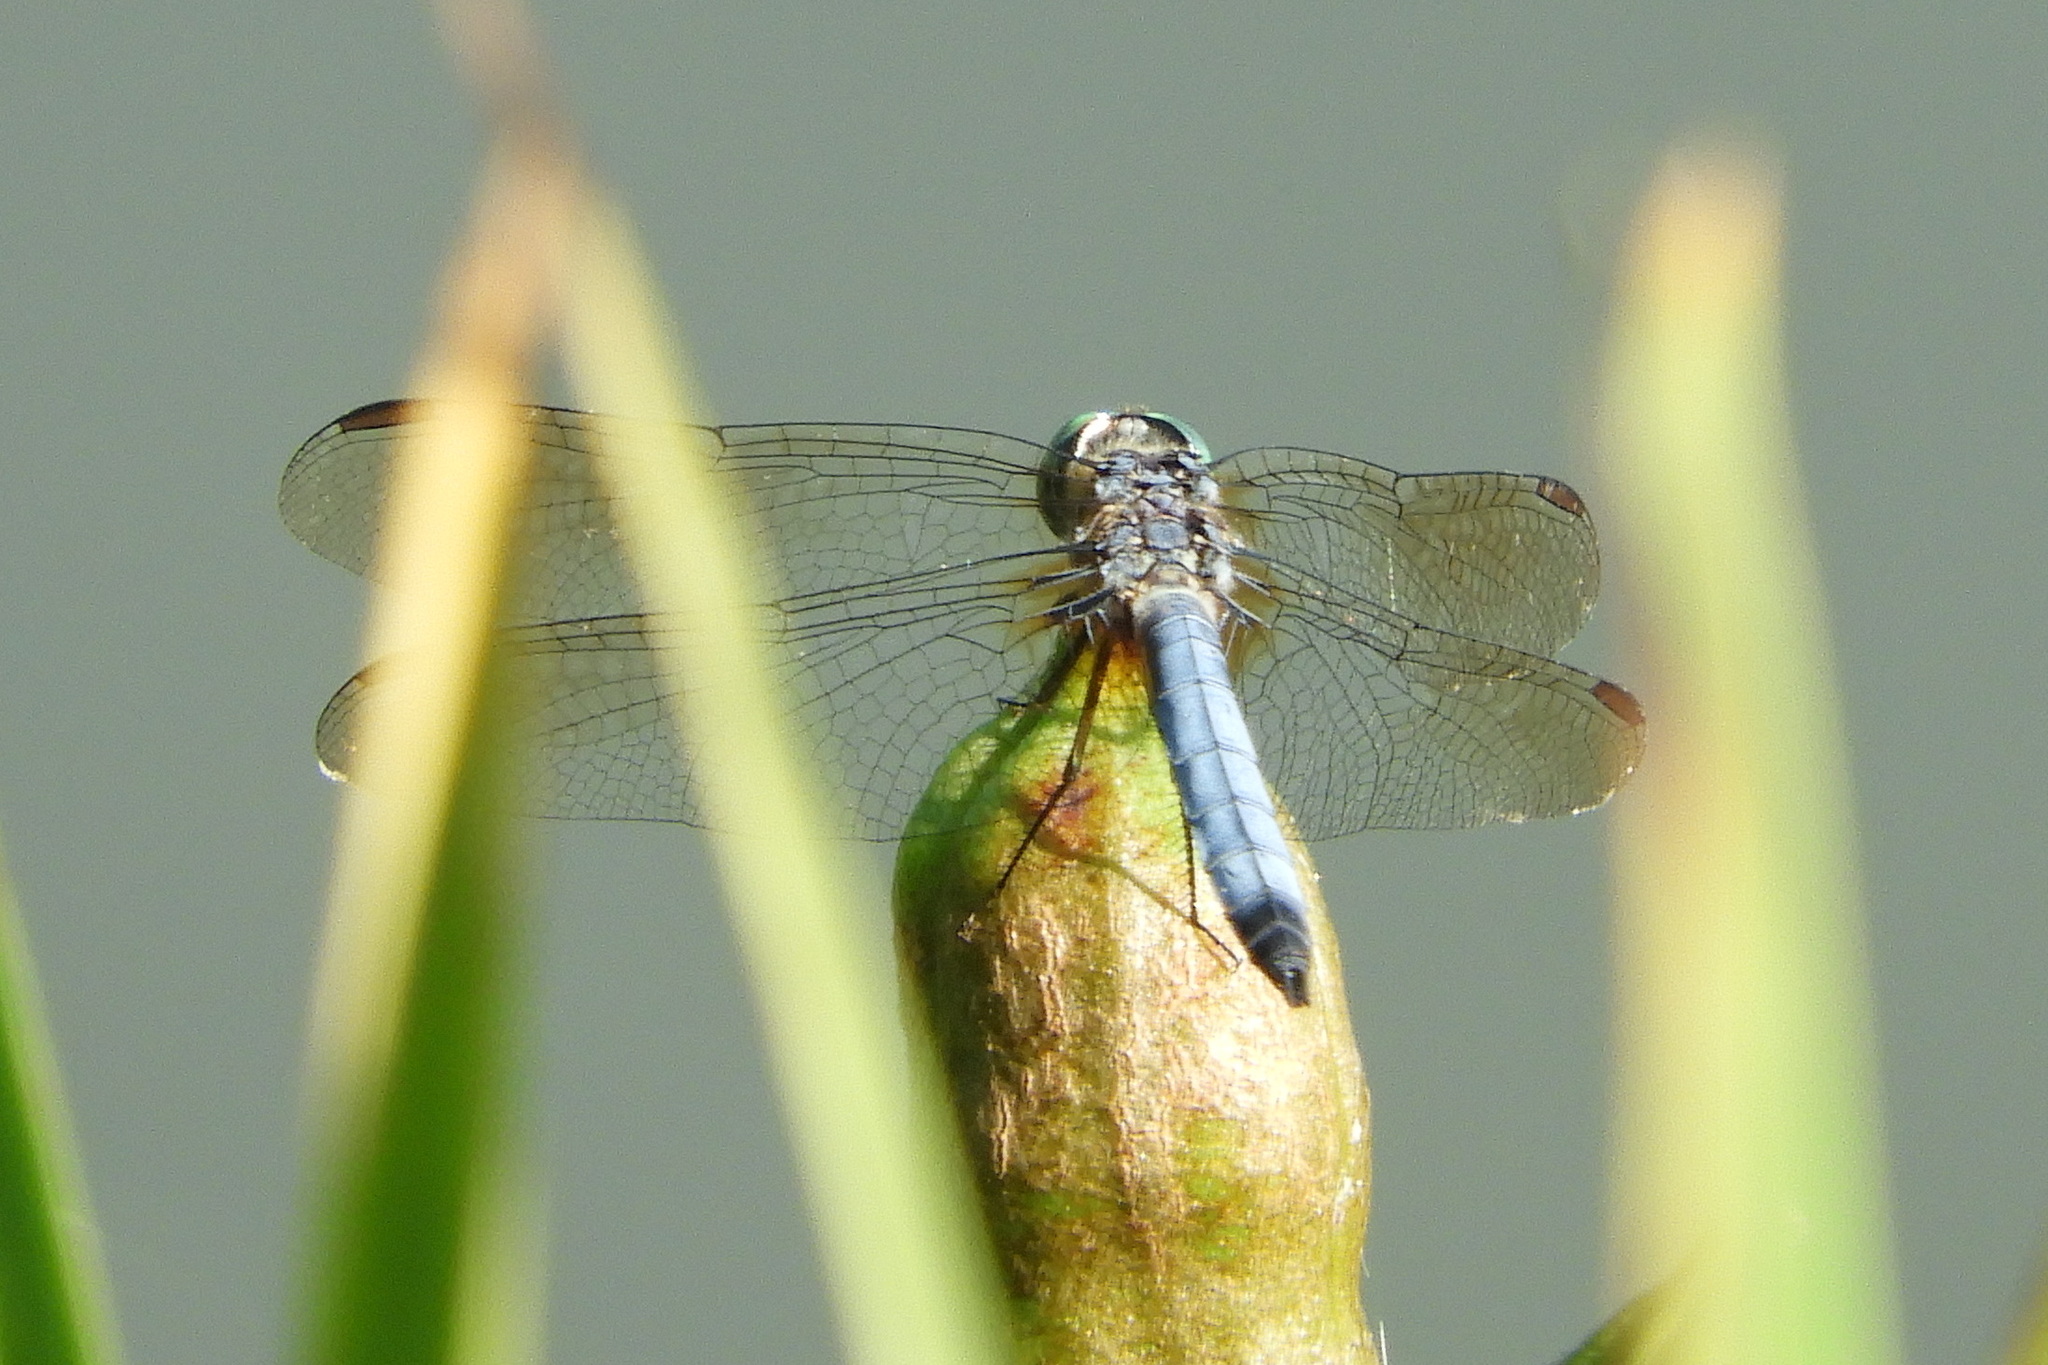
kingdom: Animalia
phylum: Arthropoda
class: Insecta
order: Odonata
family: Libellulidae
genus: Pachydiplax
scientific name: Pachydiplax longipennis
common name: Blue dasher
